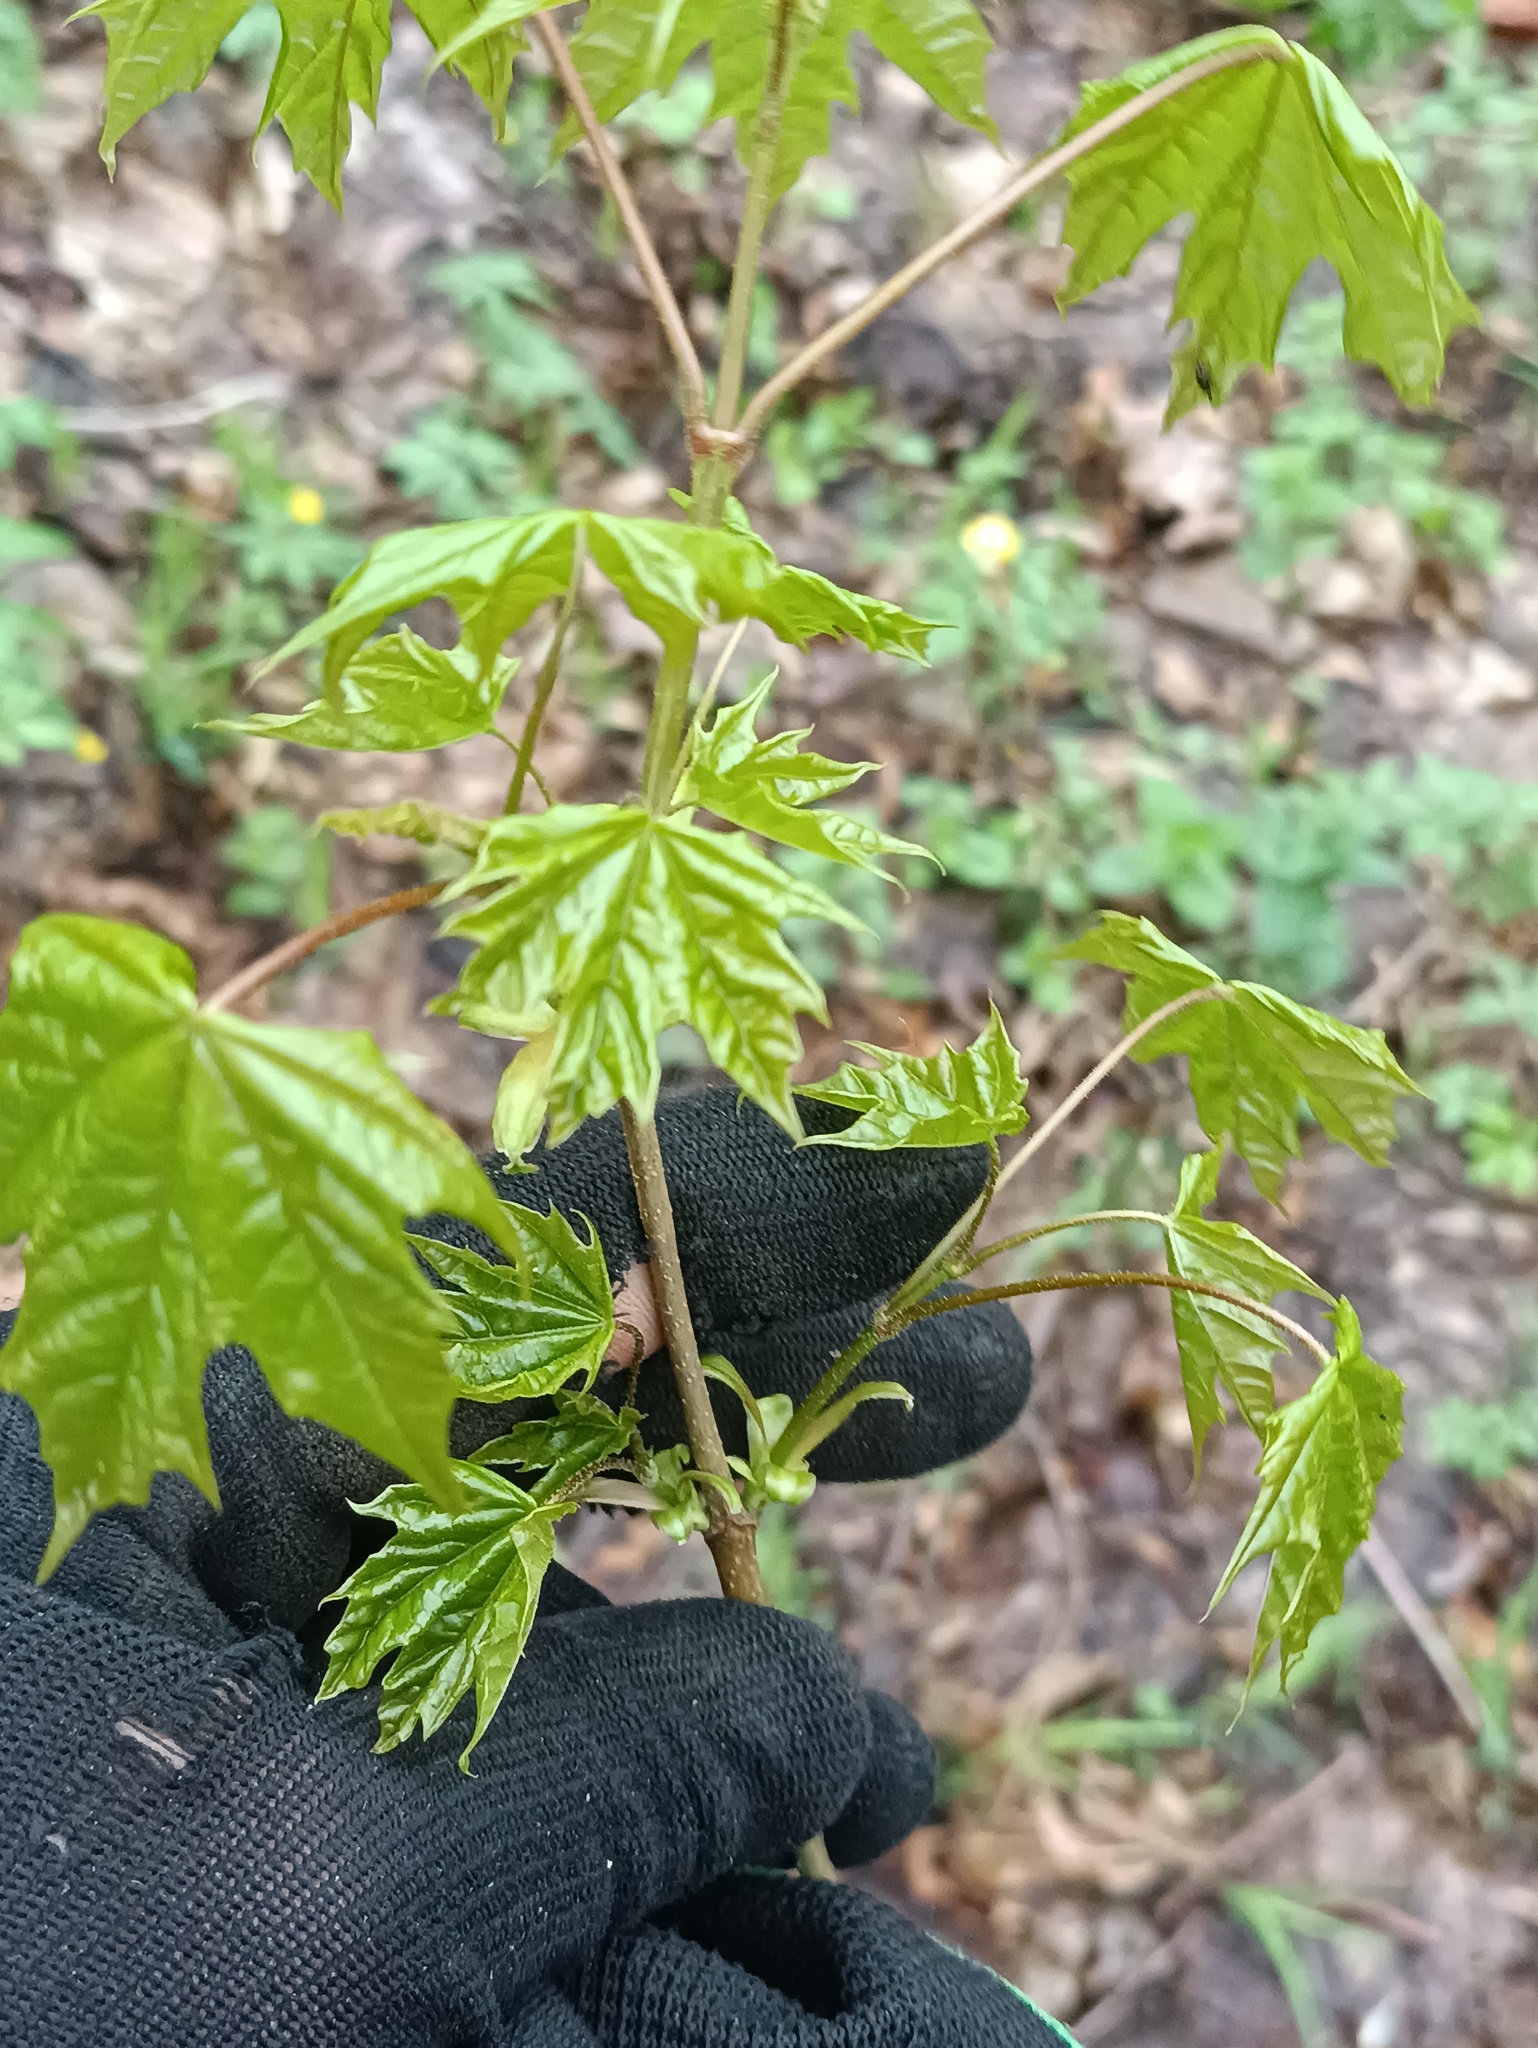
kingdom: Plantae
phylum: Tracheophyta
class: Magnoliopsida
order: Sapindales
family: Sapindaceae
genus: Acer
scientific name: Acer platanoides
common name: Norway maple
